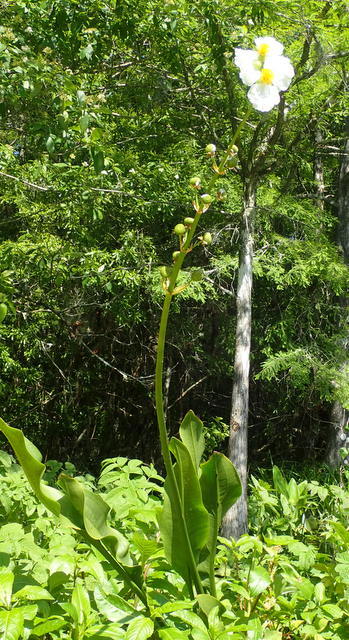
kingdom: Plantae
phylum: Tracheophyta
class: Liliopsida
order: Alismatales
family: Alismataceae
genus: Sagittaria
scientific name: Sagittaria lancifolia
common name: Lance-leaf arrowhead
